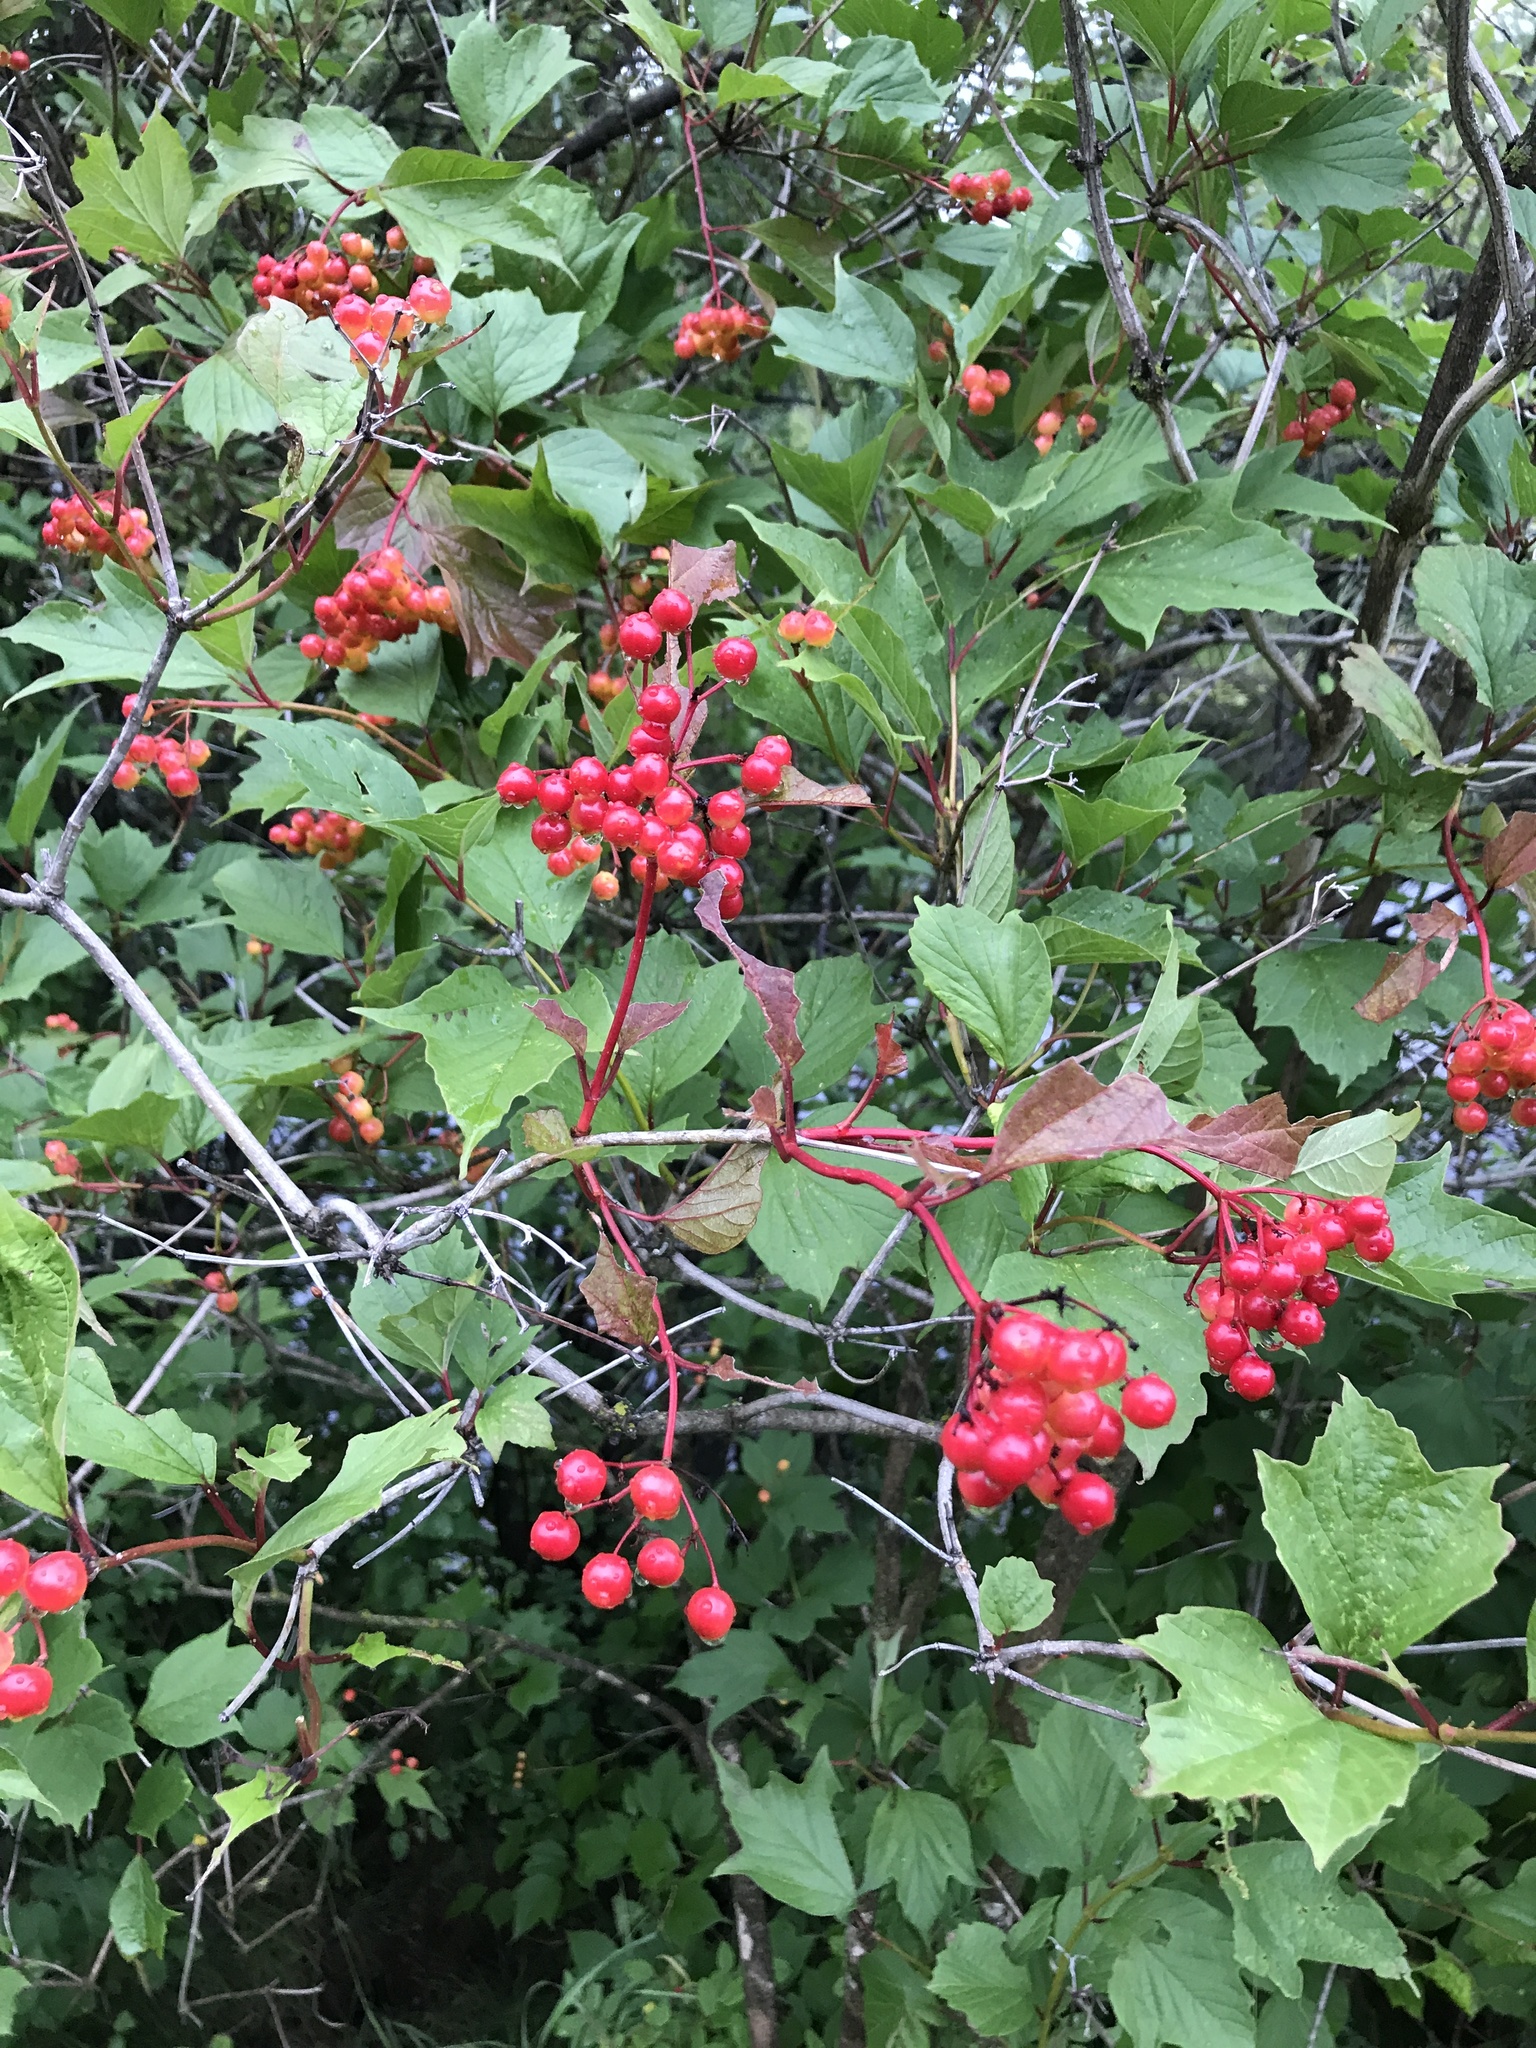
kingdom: Plantae
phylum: Tracheophyta
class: Magnoliopsida
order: Dipsacales
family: Viburnaceae
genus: Viburnum
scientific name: Viburnum opulus
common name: Guelder-rose
